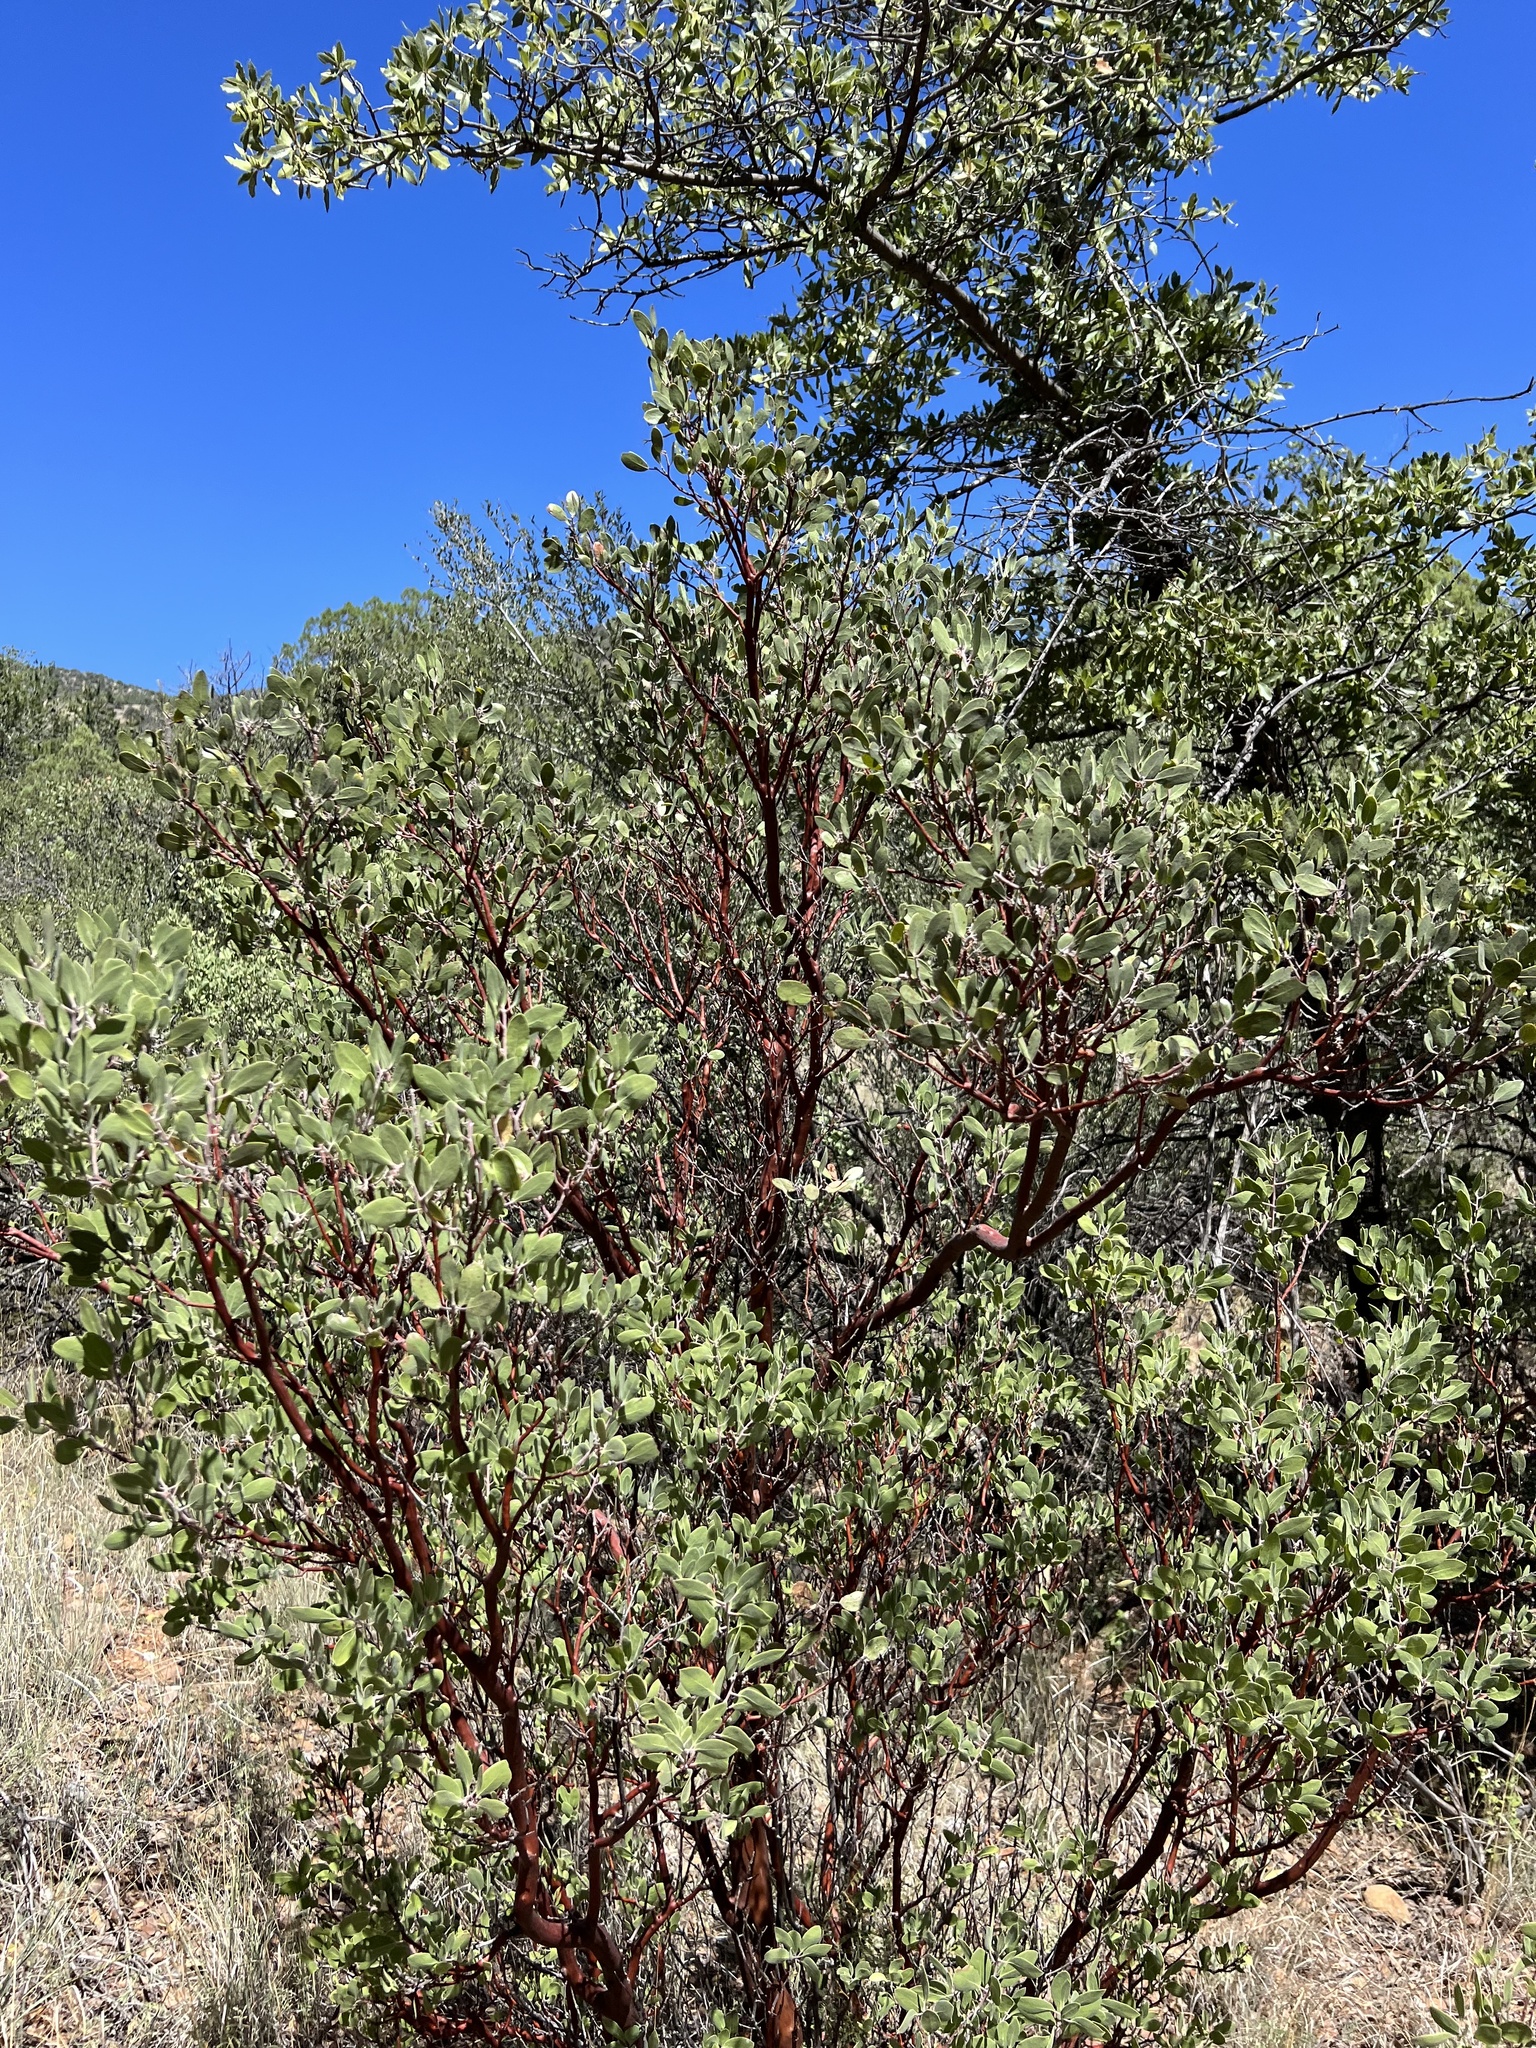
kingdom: Plantae
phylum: Tracheophyta
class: Magnoliopsida
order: Ericales
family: Ericaceae
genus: Arctostaphylos
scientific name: Arctostaphylos pungens
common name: Mexican manzanita
